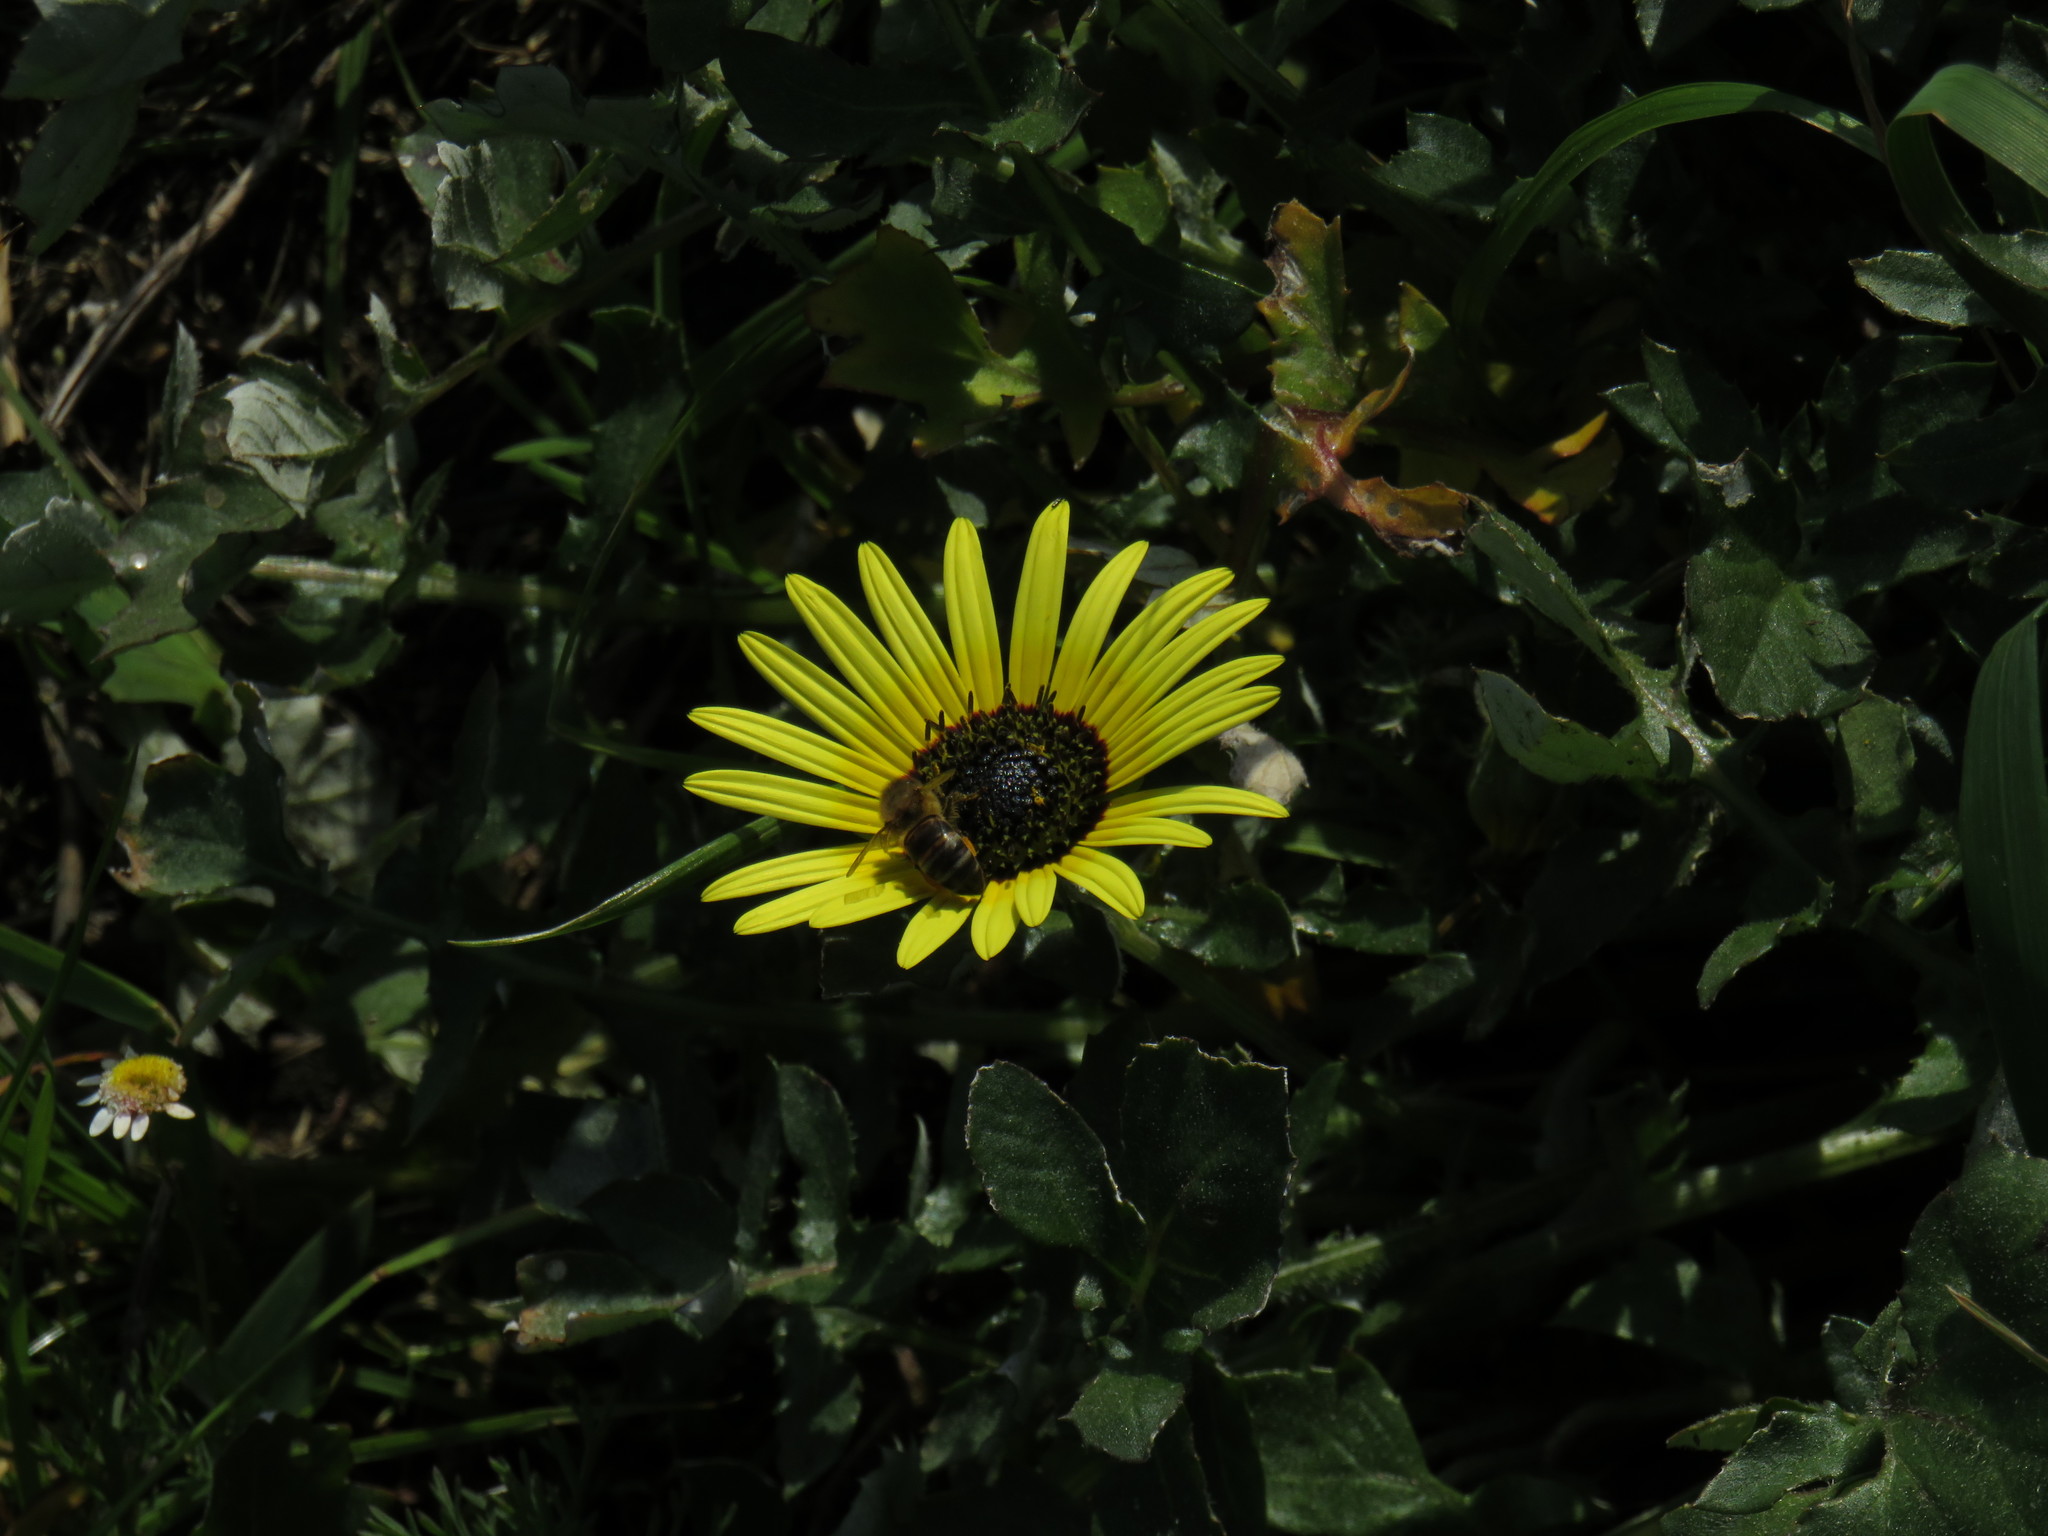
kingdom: Animalia
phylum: Arthropoda
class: Insecta
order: Hymenoptera
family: Apidae
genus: Apis
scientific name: Apis mellifera
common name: Honey bee
